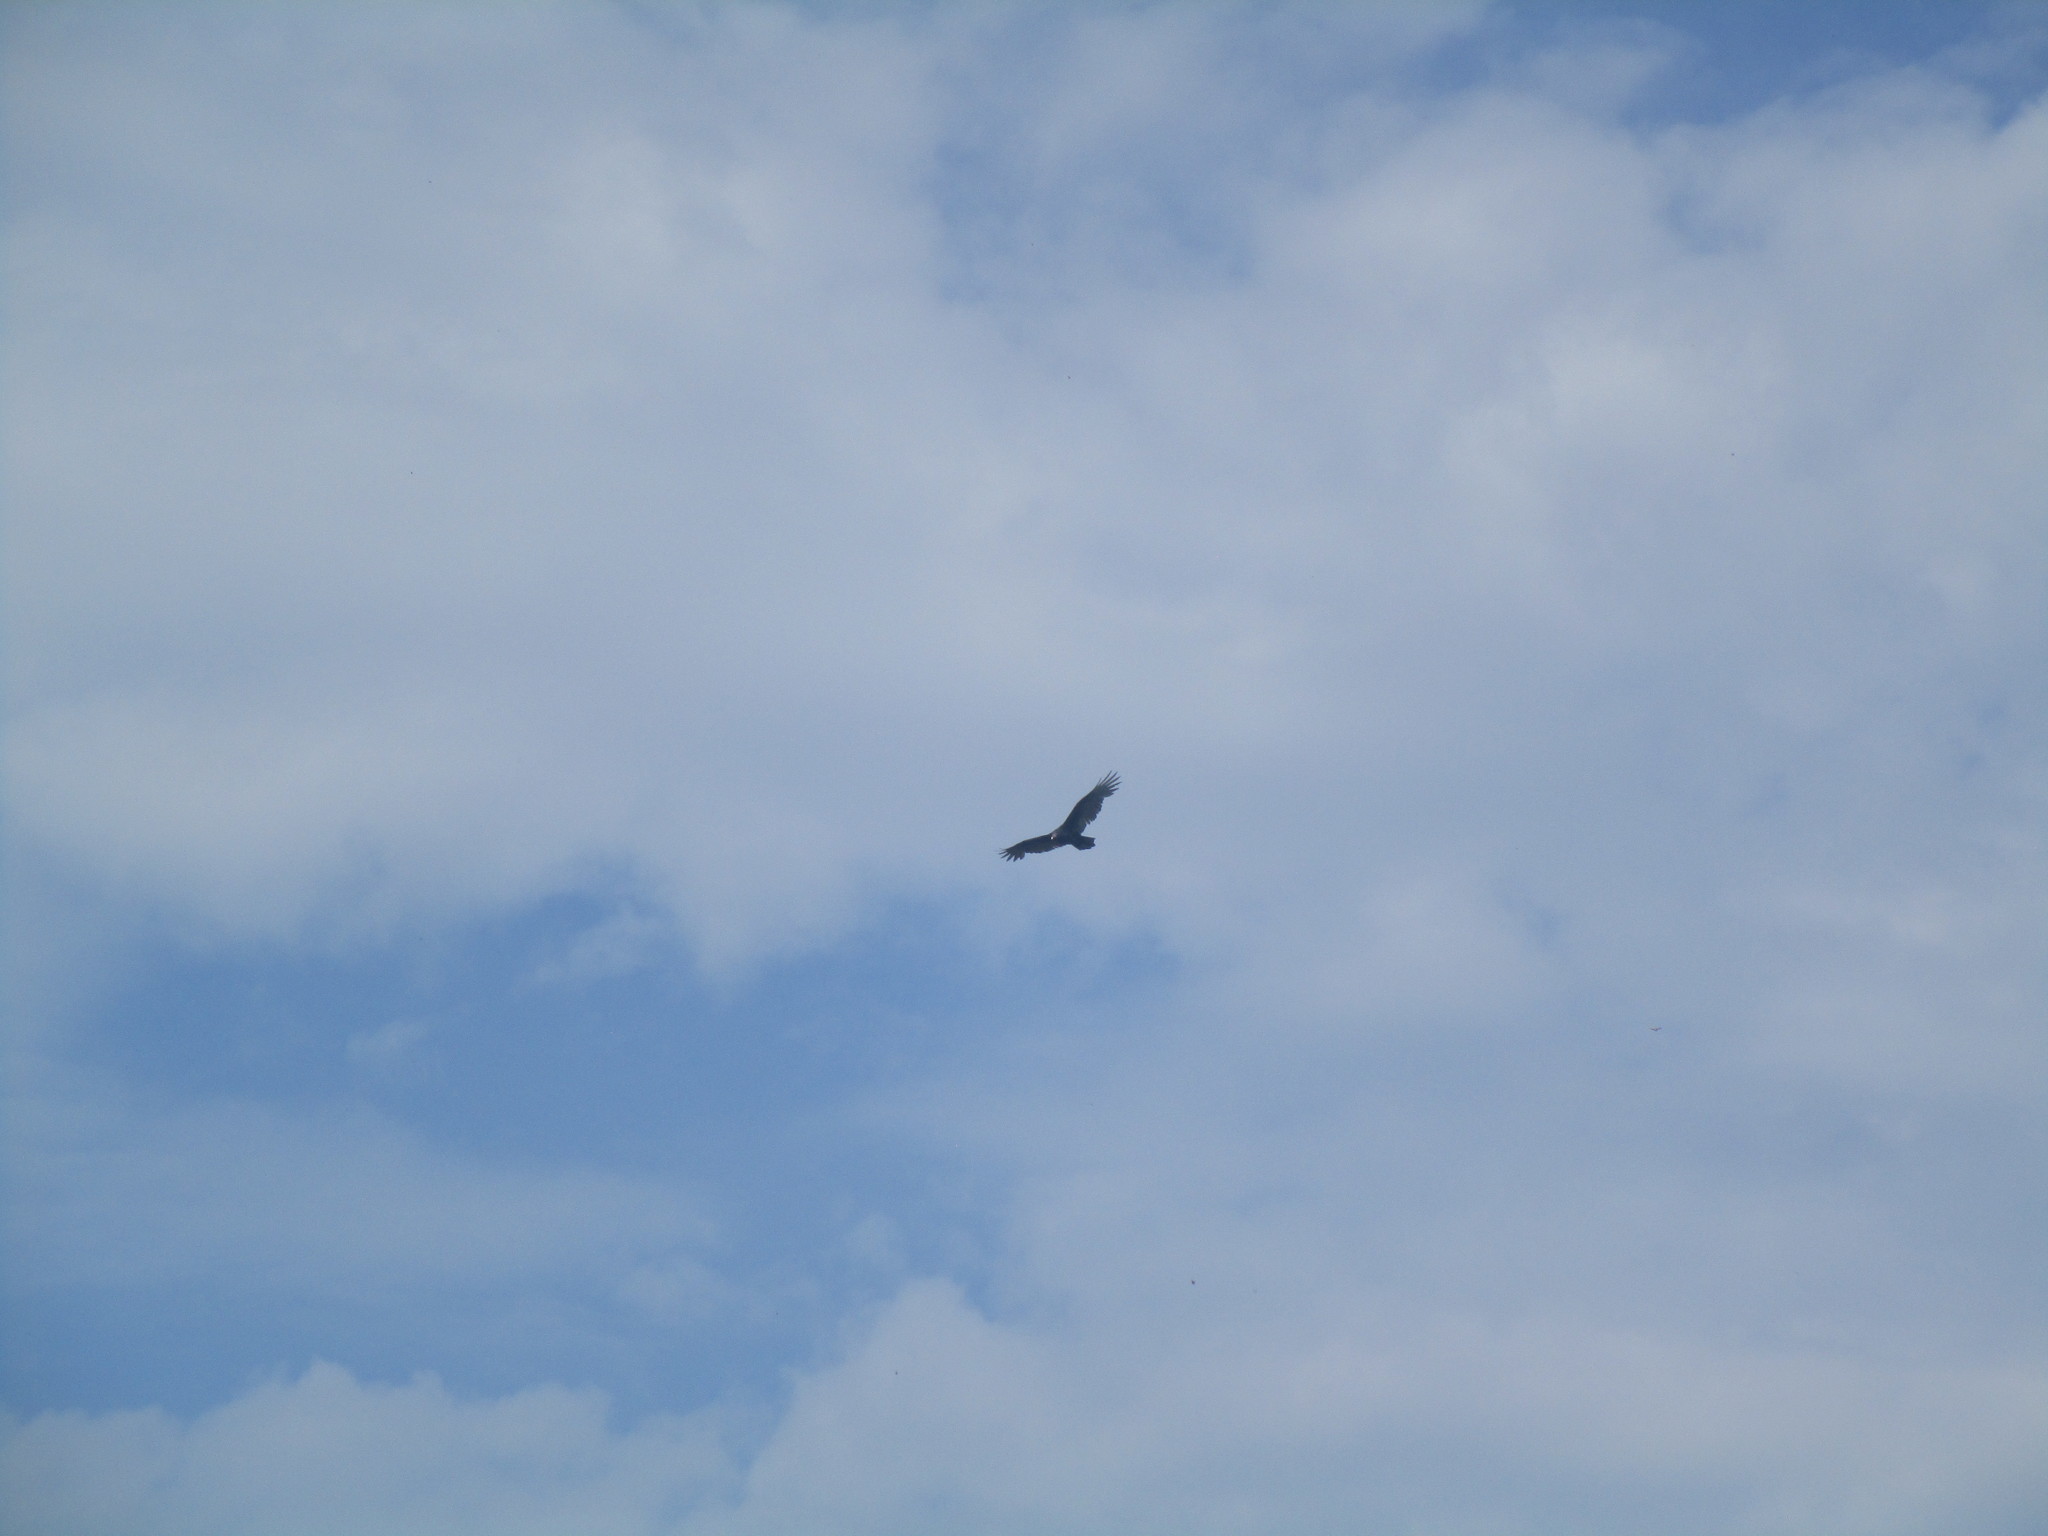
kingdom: Animalia
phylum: Chordata
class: Aves
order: Accipitriformes
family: Cathartidae
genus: Cathartes
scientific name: Cathartes aura
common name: Turkey vulture
